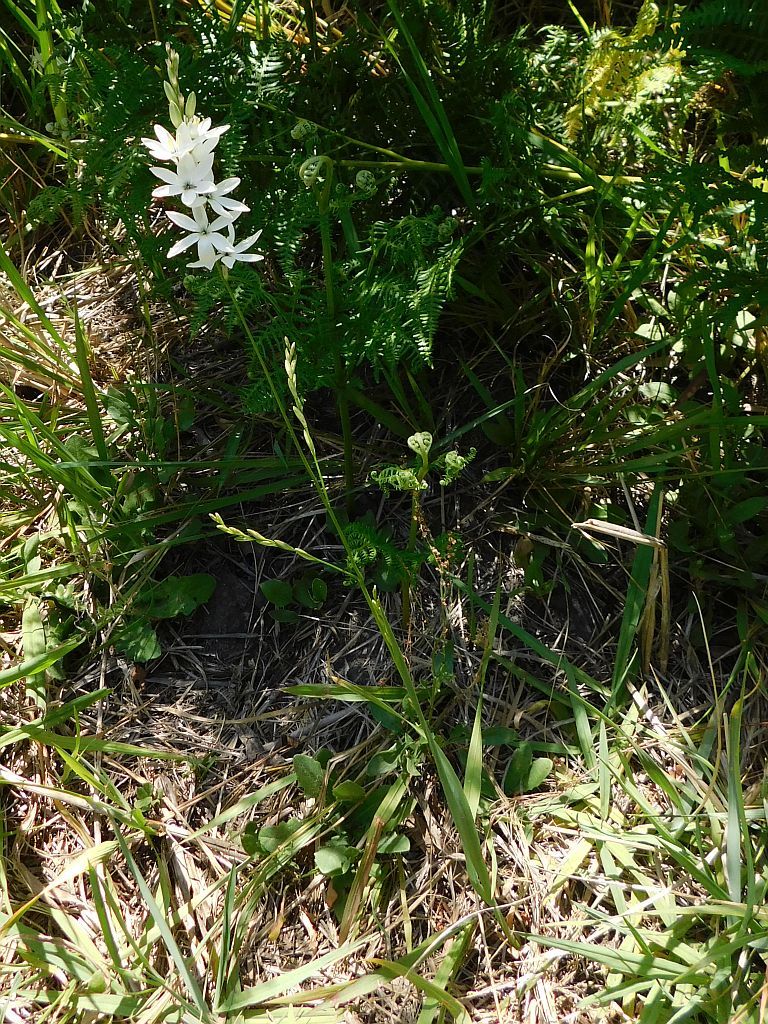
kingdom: Plantae
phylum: Tracheophyta
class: Liliopsida
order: Asparagales
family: Iridaceae
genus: Ixia
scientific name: Ixia polystachya
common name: White-and-yellow-flower cornlily
